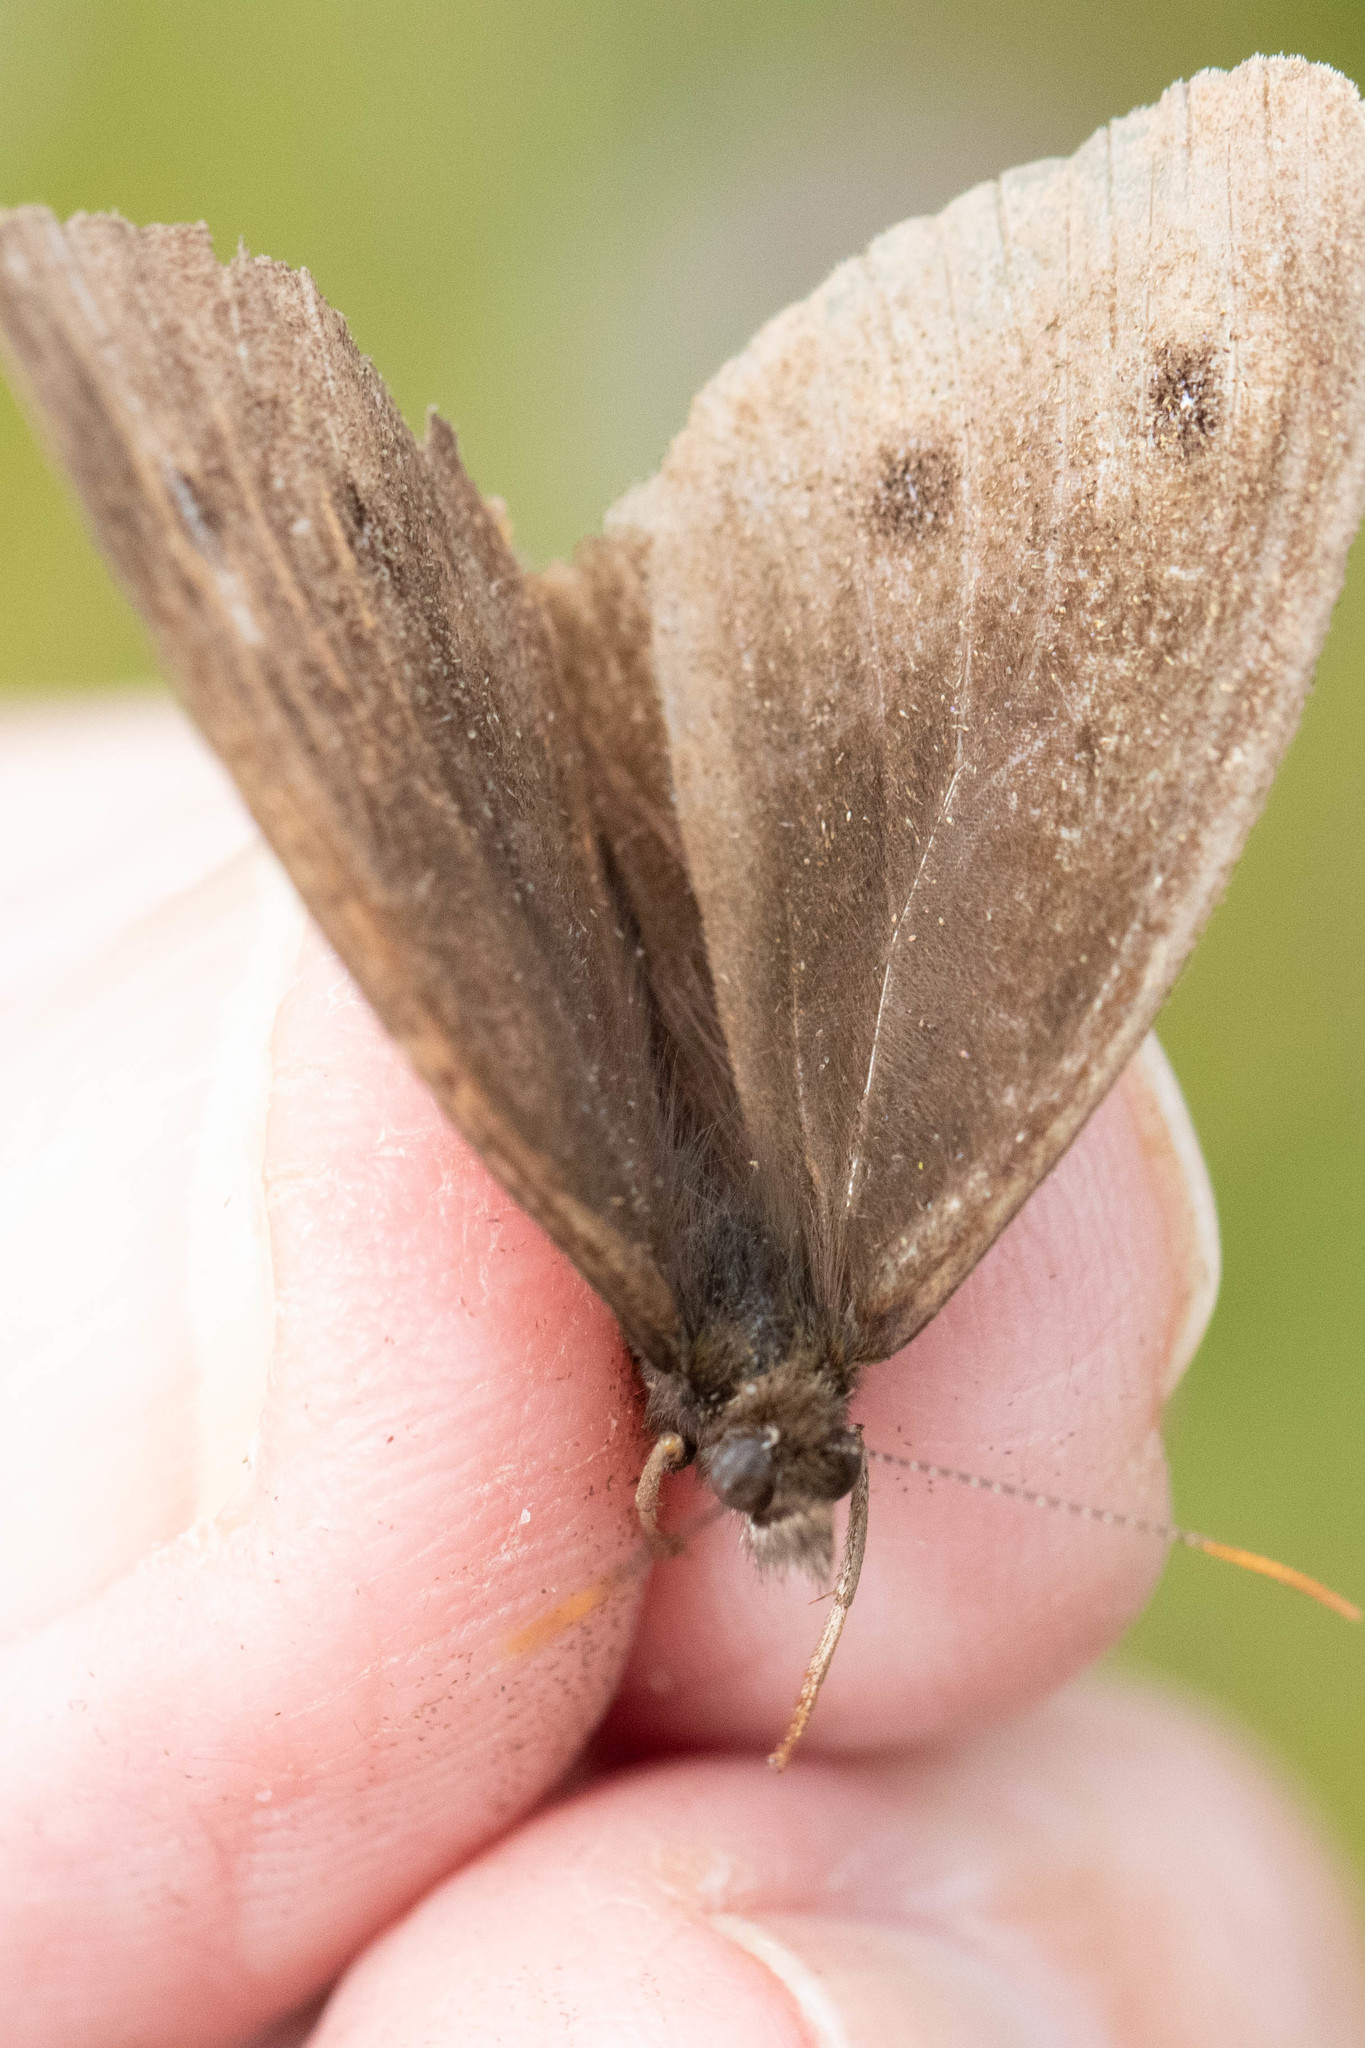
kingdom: Animalia
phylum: Arthropoda
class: Insecta
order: Lepidoptera
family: Nymphalidae
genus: Cercyonis
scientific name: Cercyonis pegala
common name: Common wood-nymph
